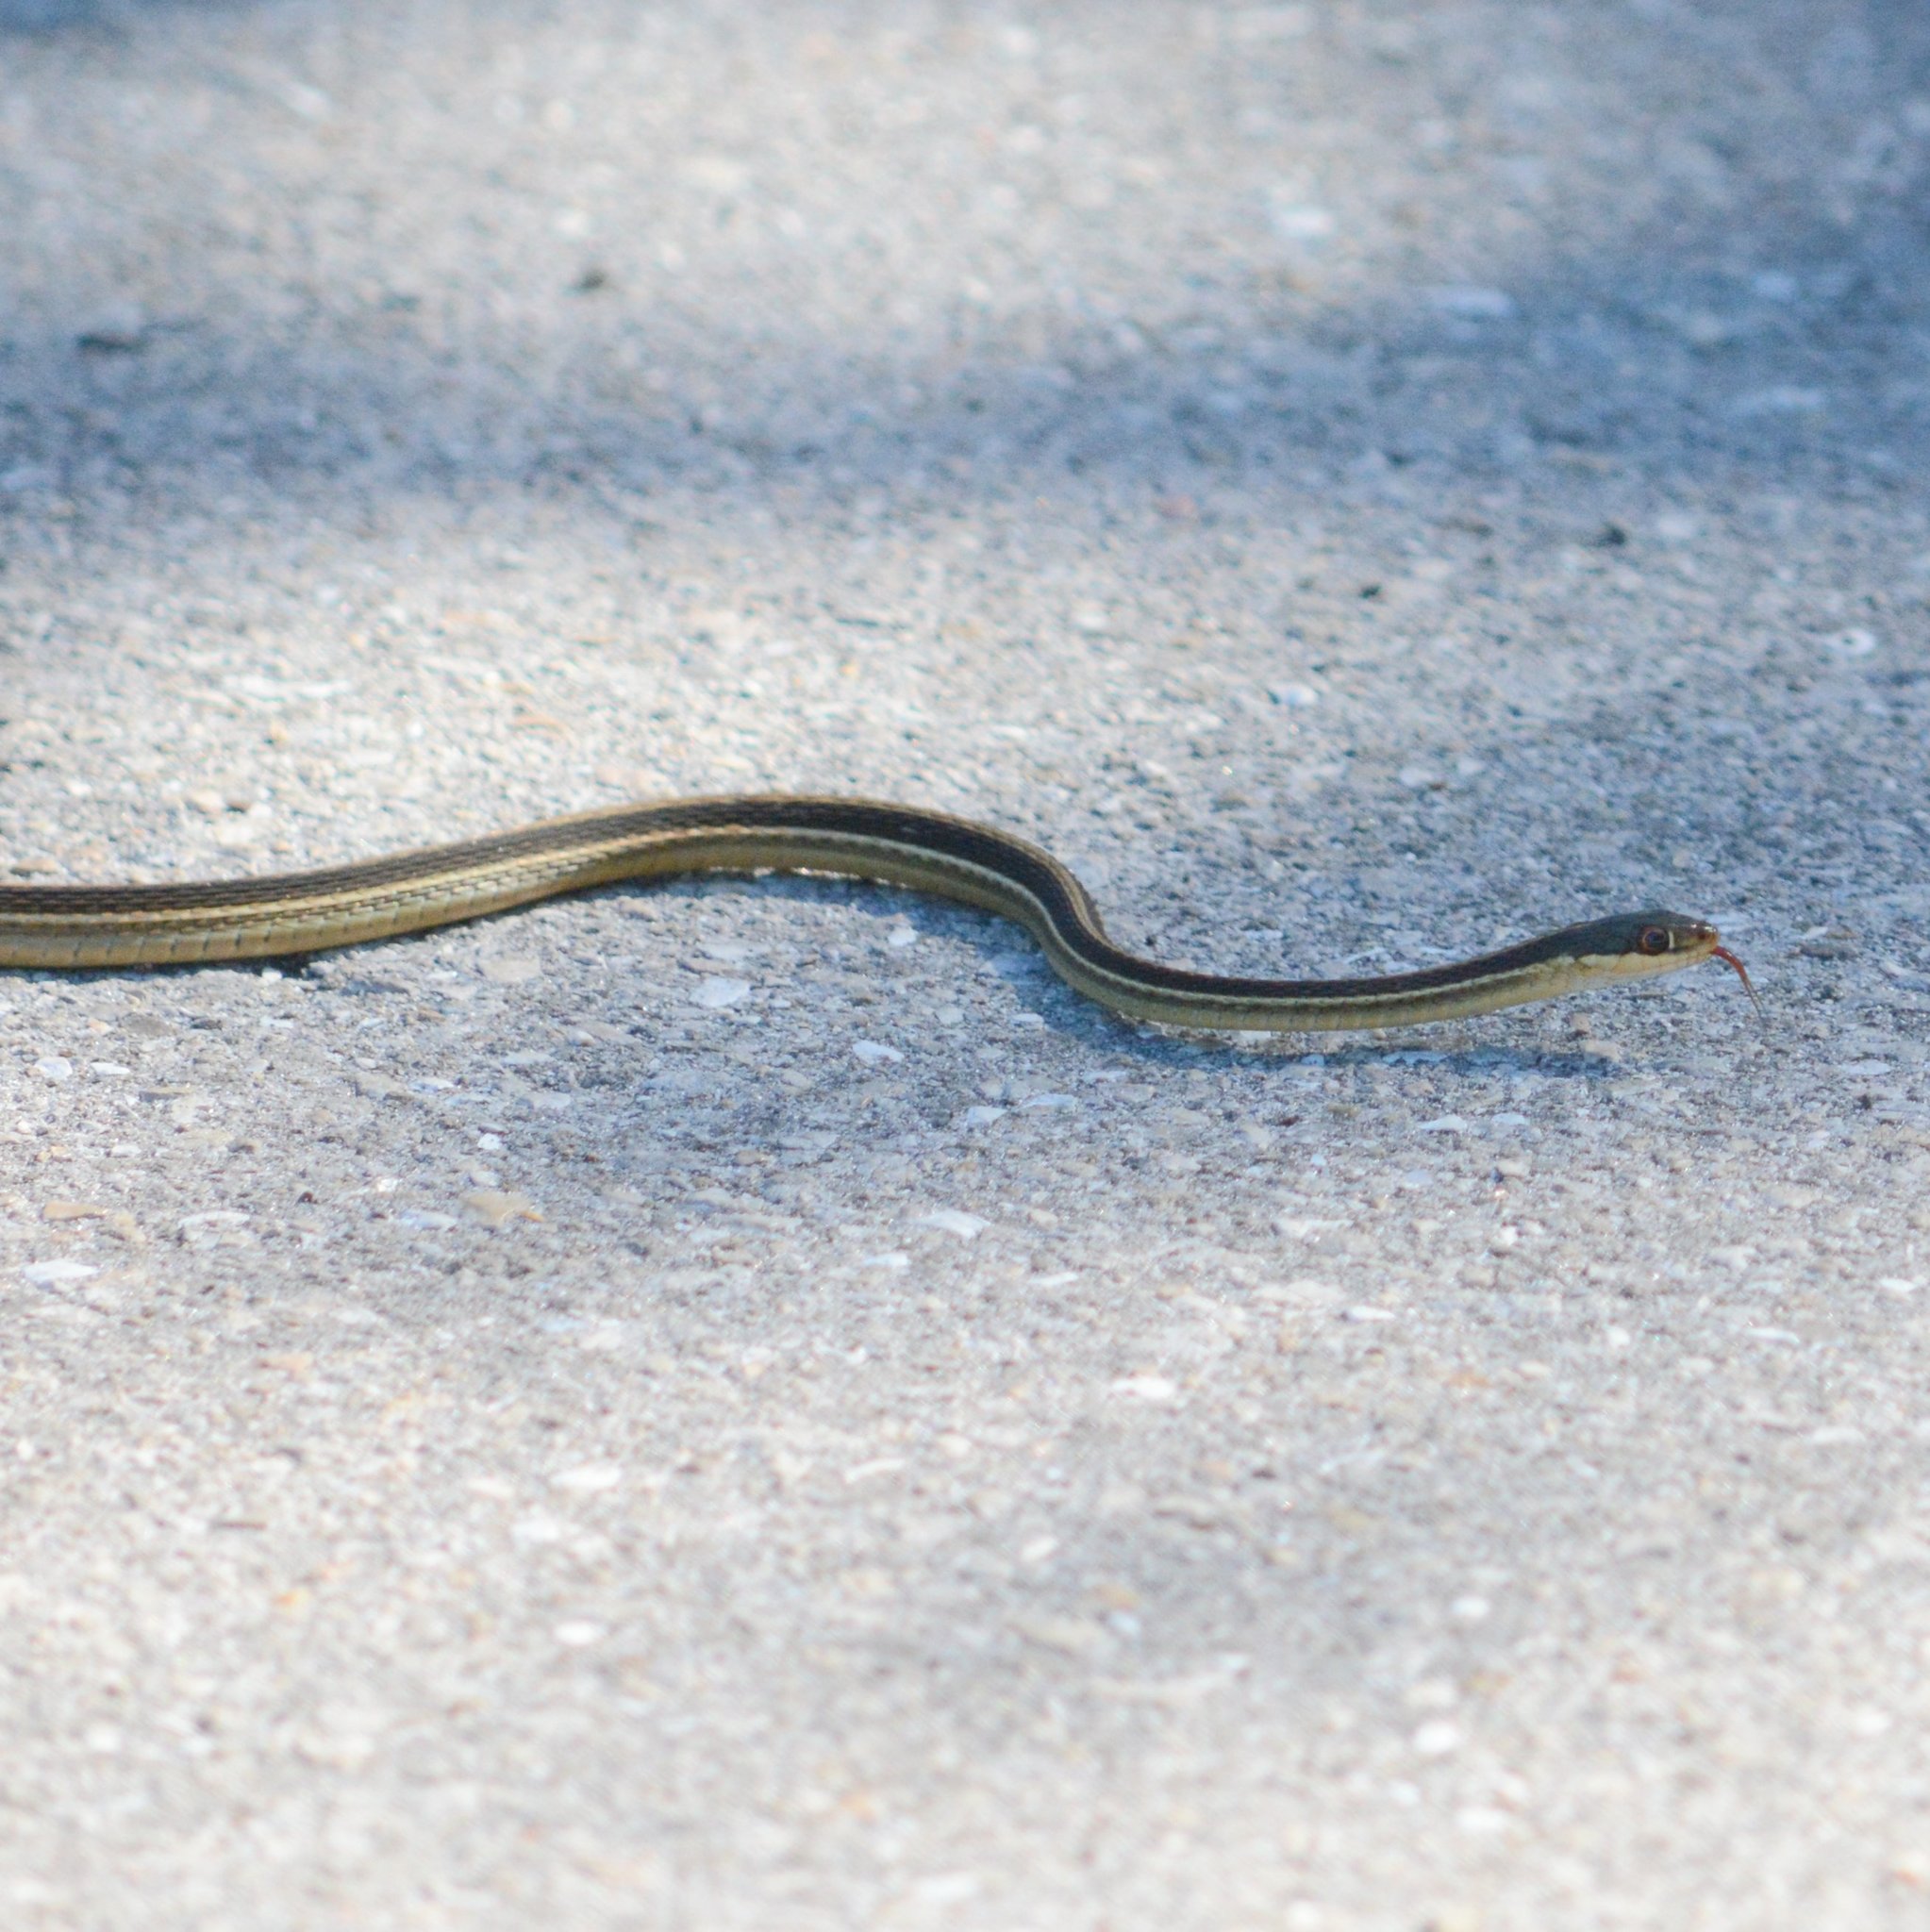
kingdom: Animalia
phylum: Chordata
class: Squamata
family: Colubridae
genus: Thamnophis
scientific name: Thamnophis saurita
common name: Eastern ribbonsnake
